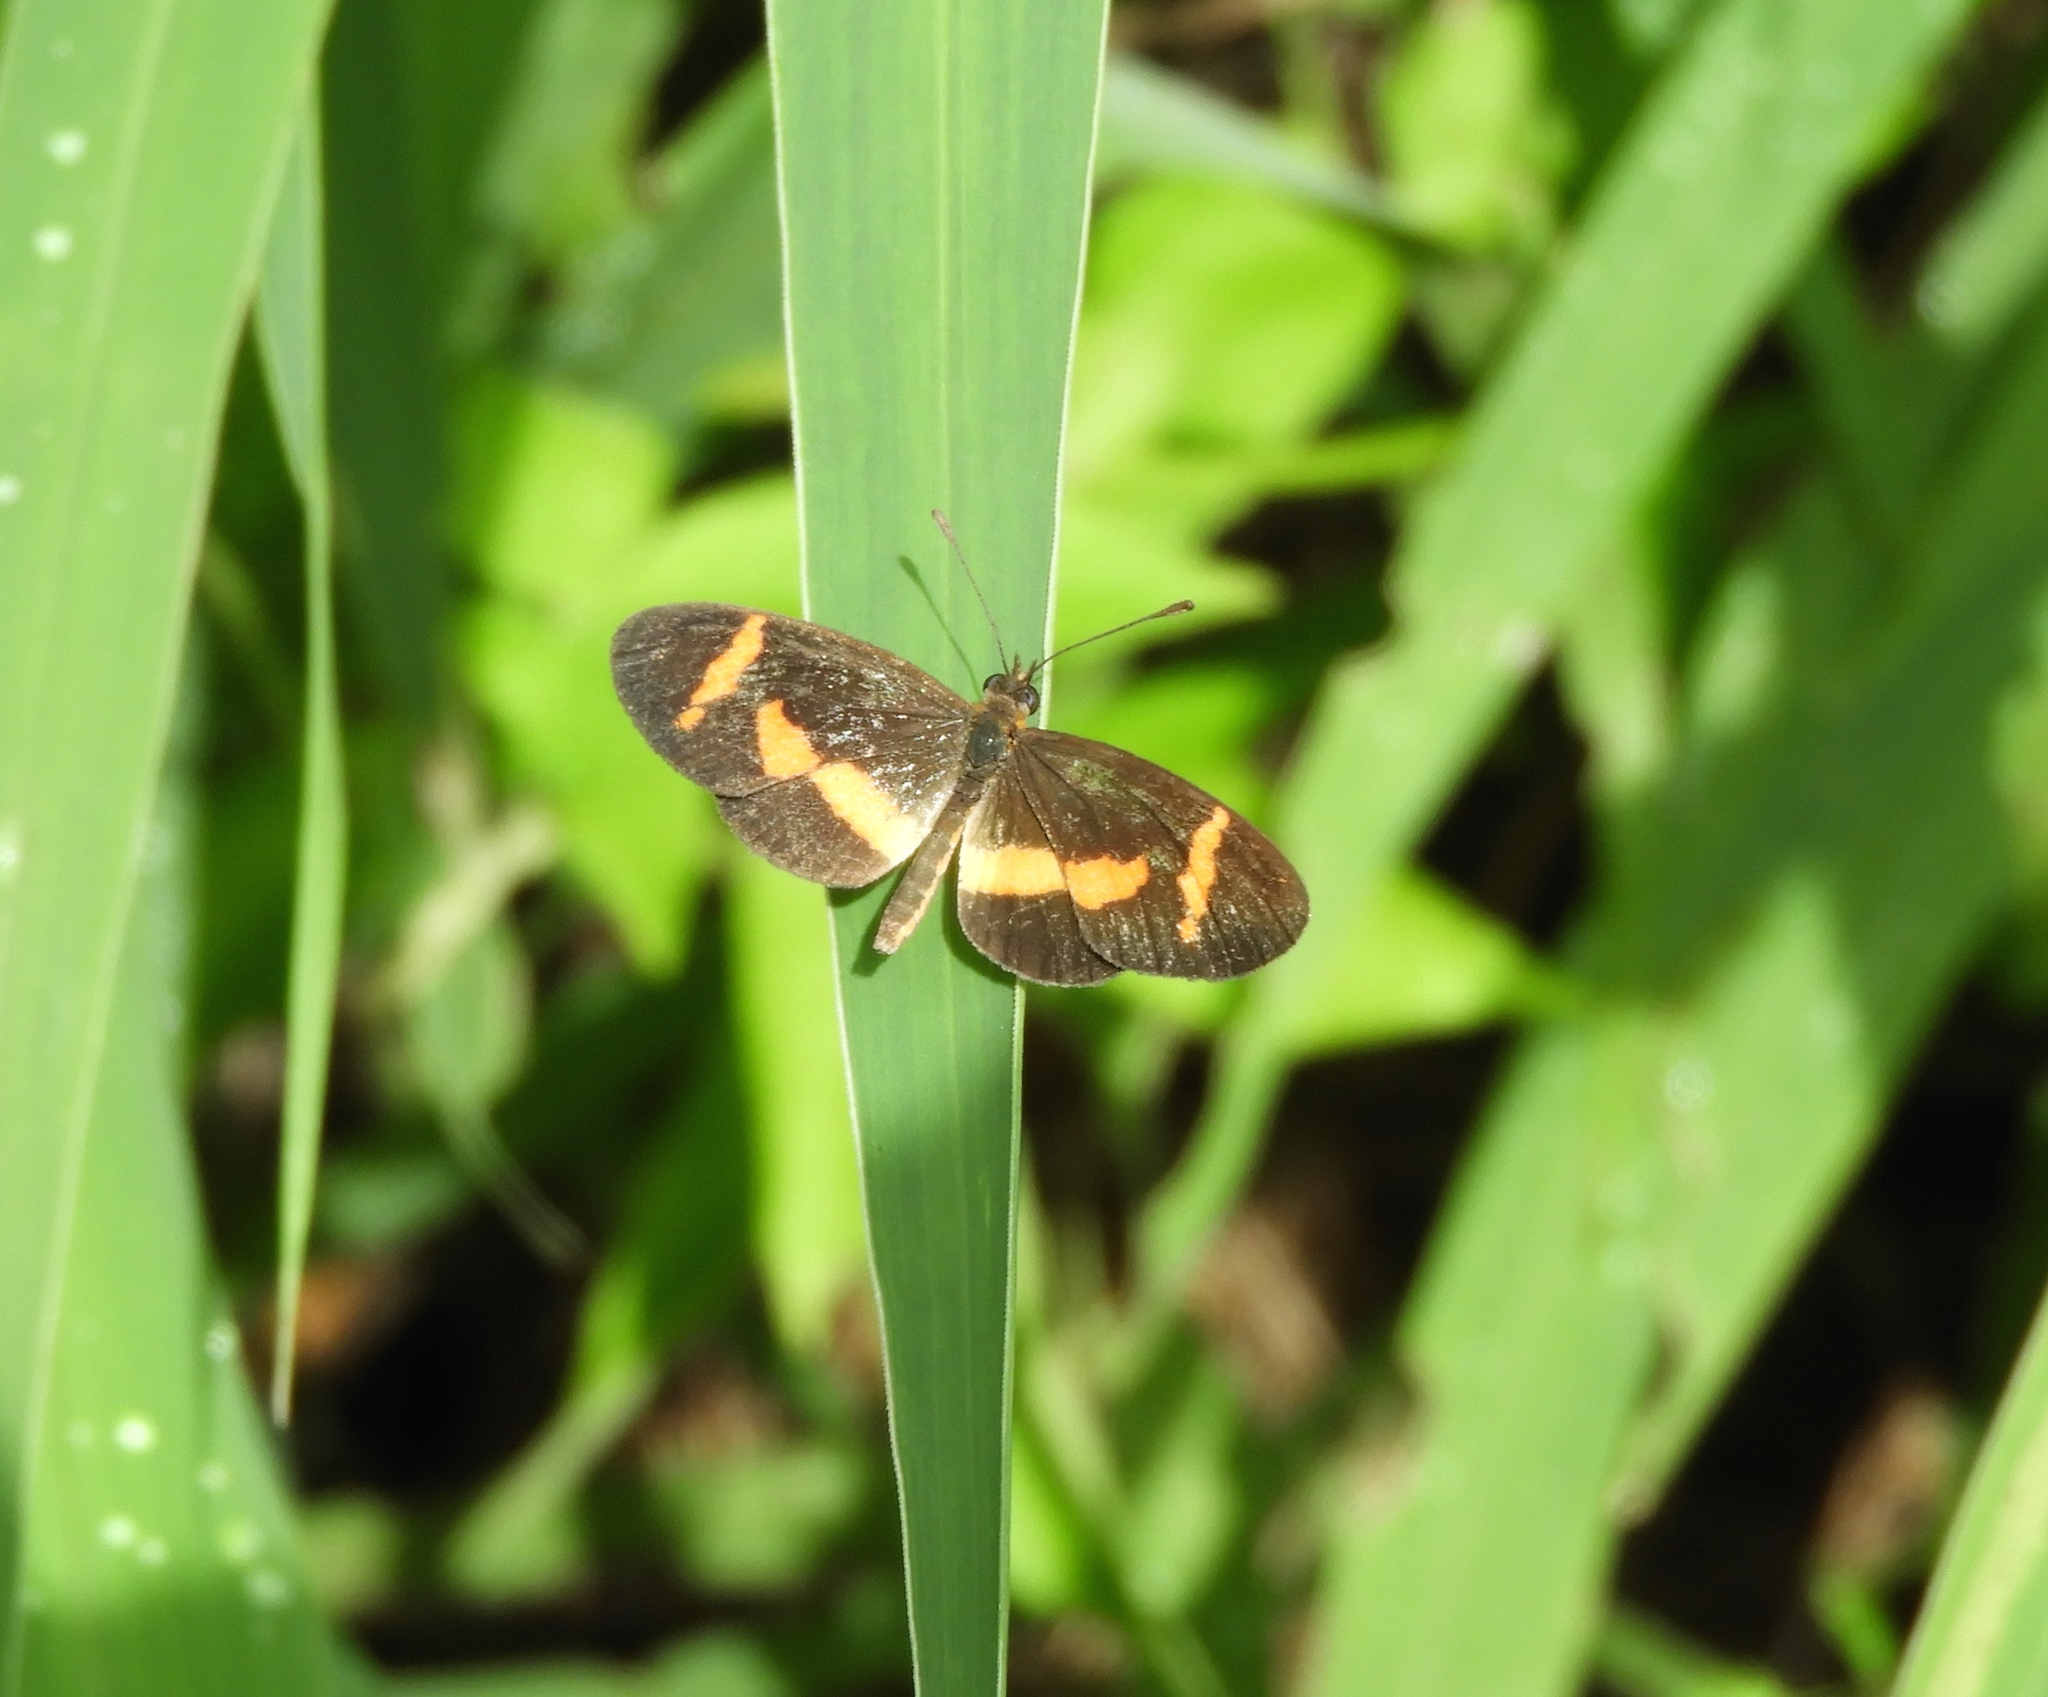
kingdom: Animalia
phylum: Arthropoda
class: Insecta
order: Lepidoptera
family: Nymphalidae
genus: Microtia
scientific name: Microtia elva
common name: Elf
